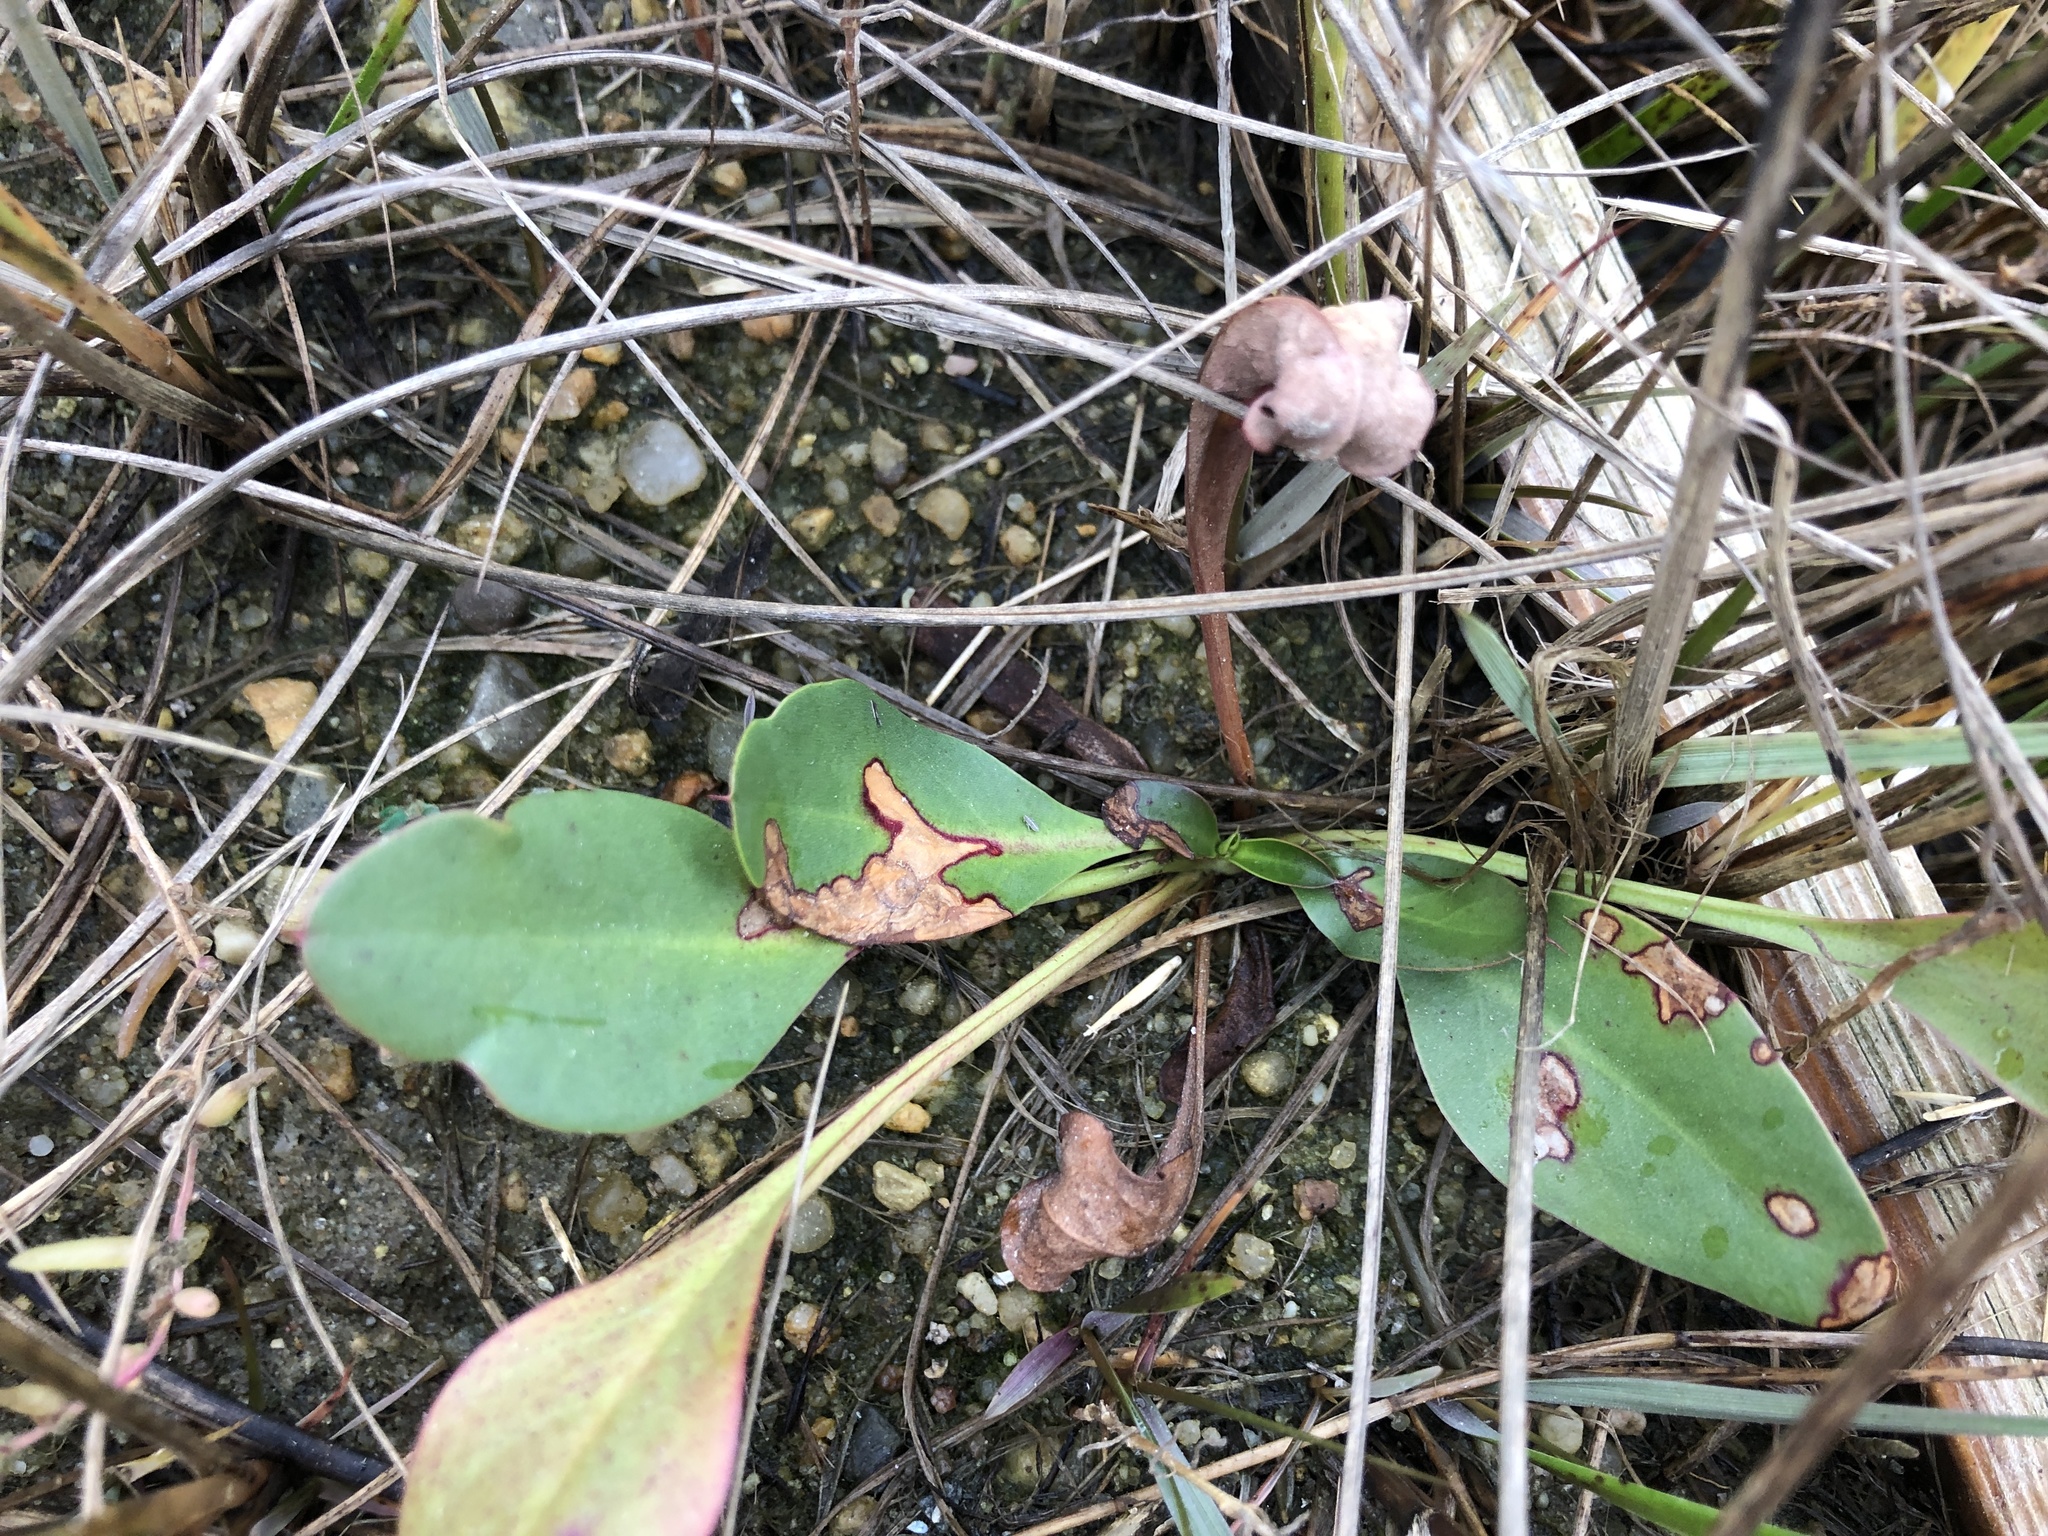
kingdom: Plantae
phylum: Tracheophyta
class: Magnoliopsida
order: Caryophyllales
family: Plumbaginaceae
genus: Limonium
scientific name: Limonium carolinianum
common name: Carolina sea lavender
